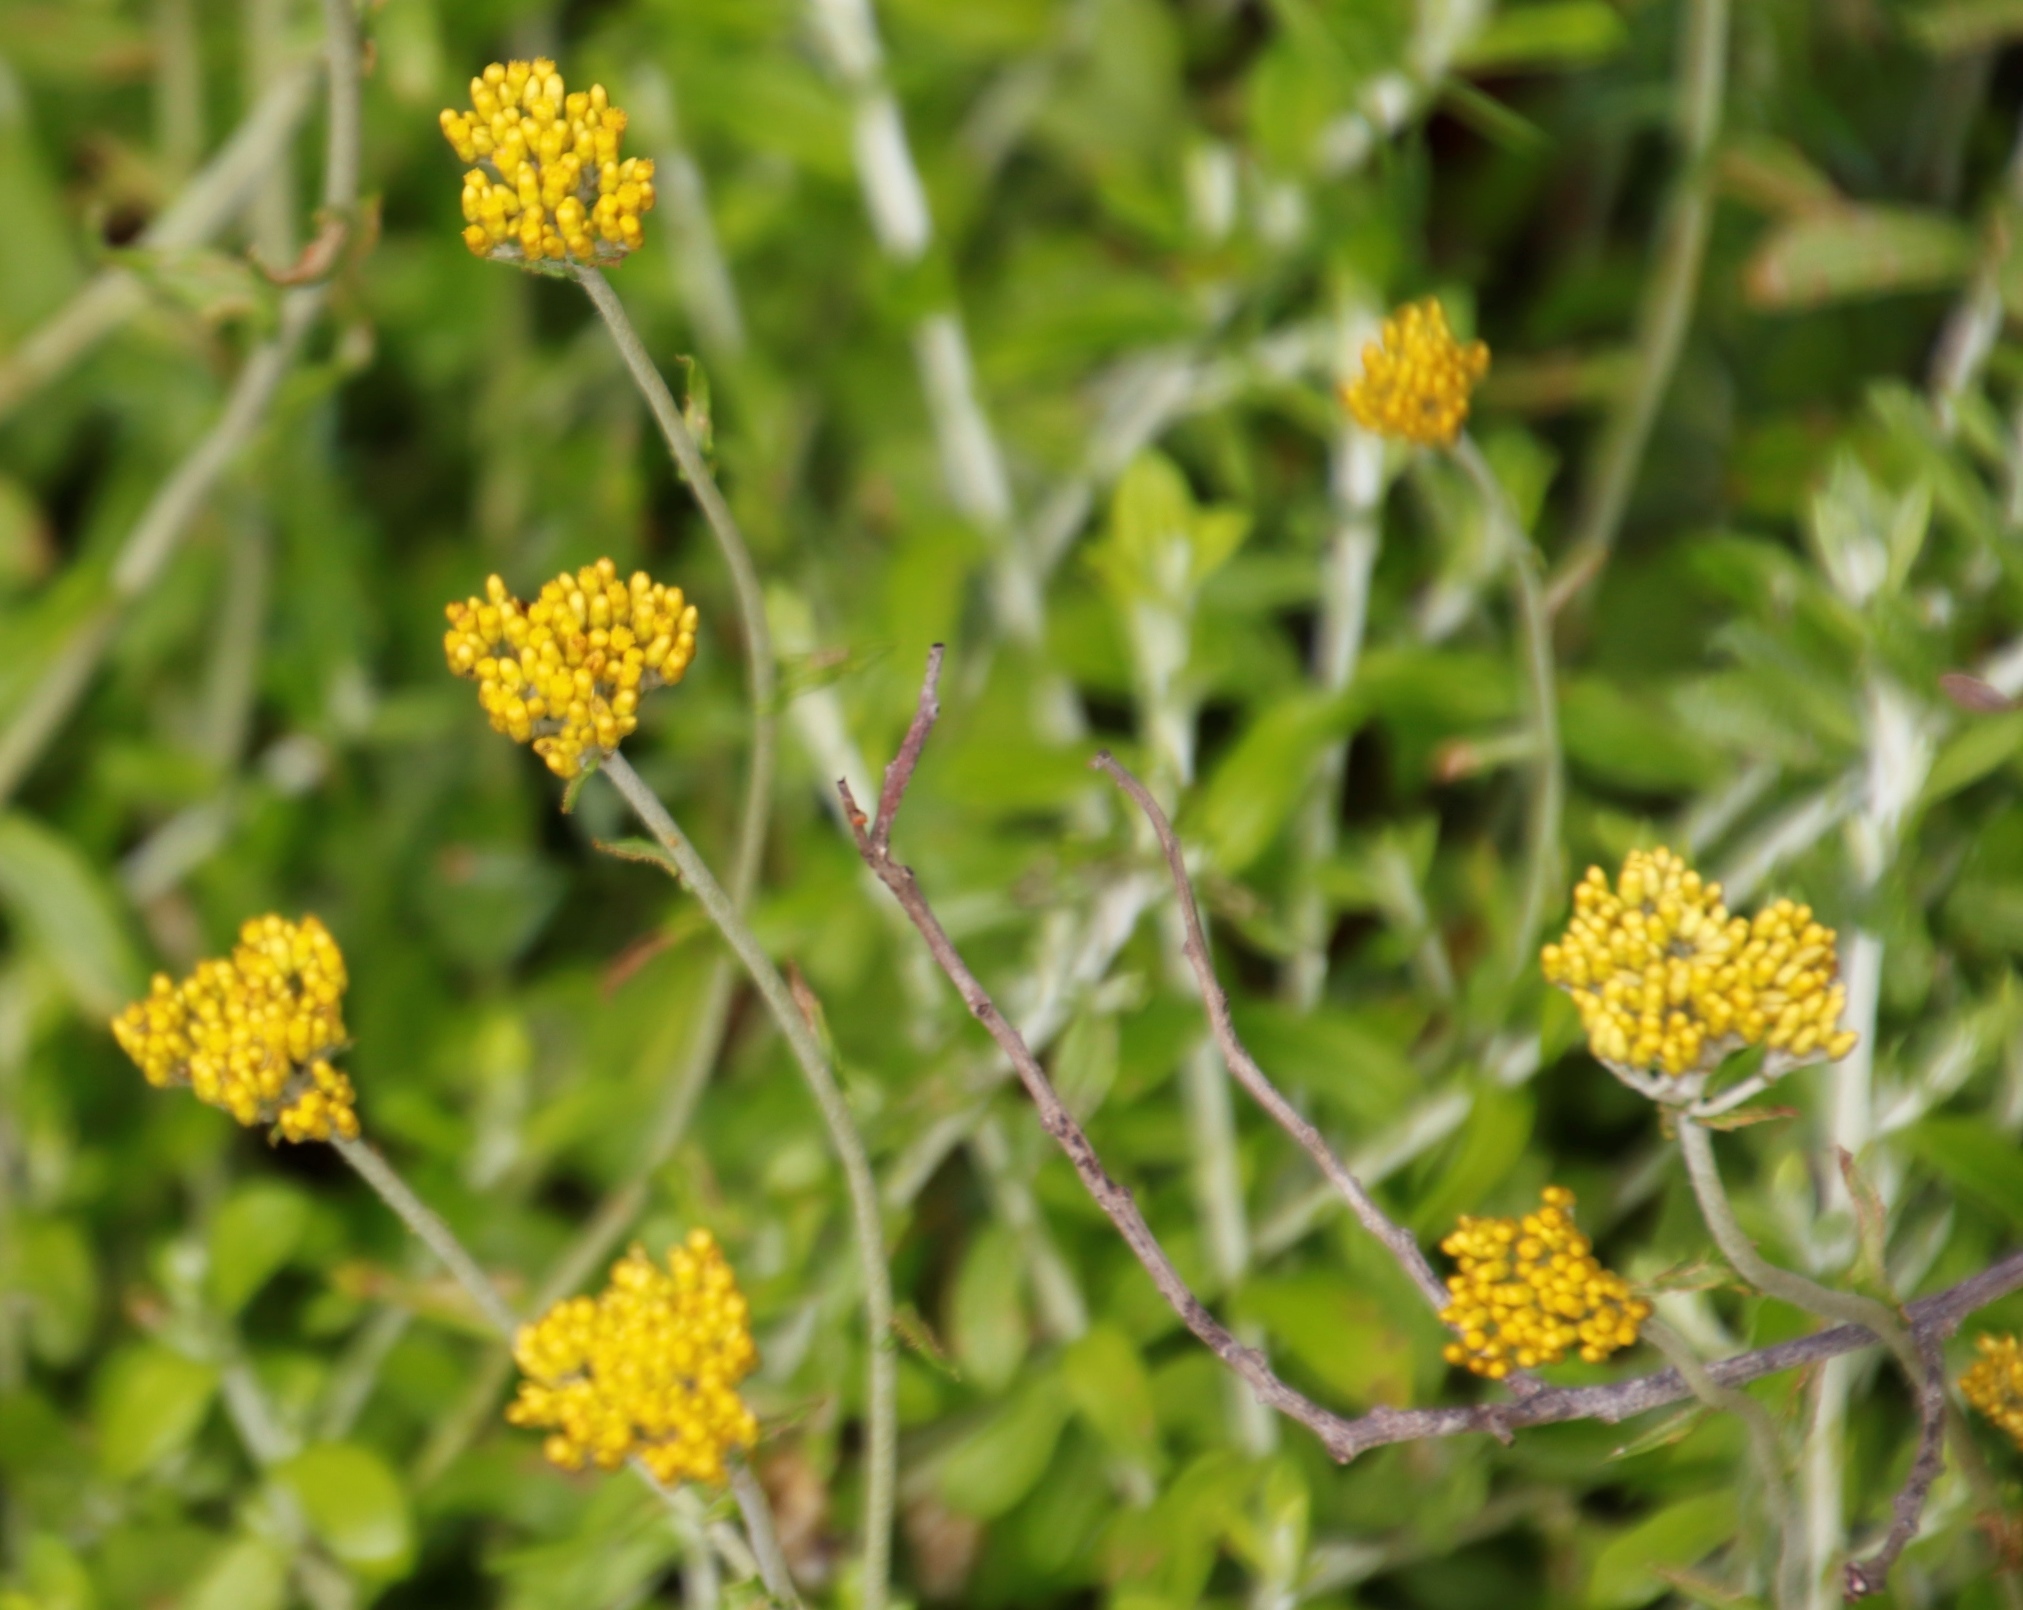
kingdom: Plantae
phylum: Tracheophyta
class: Magnoliopsida
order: Asterales
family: Asteraceae
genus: Helichrysum
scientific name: Helichrysum cymosum
